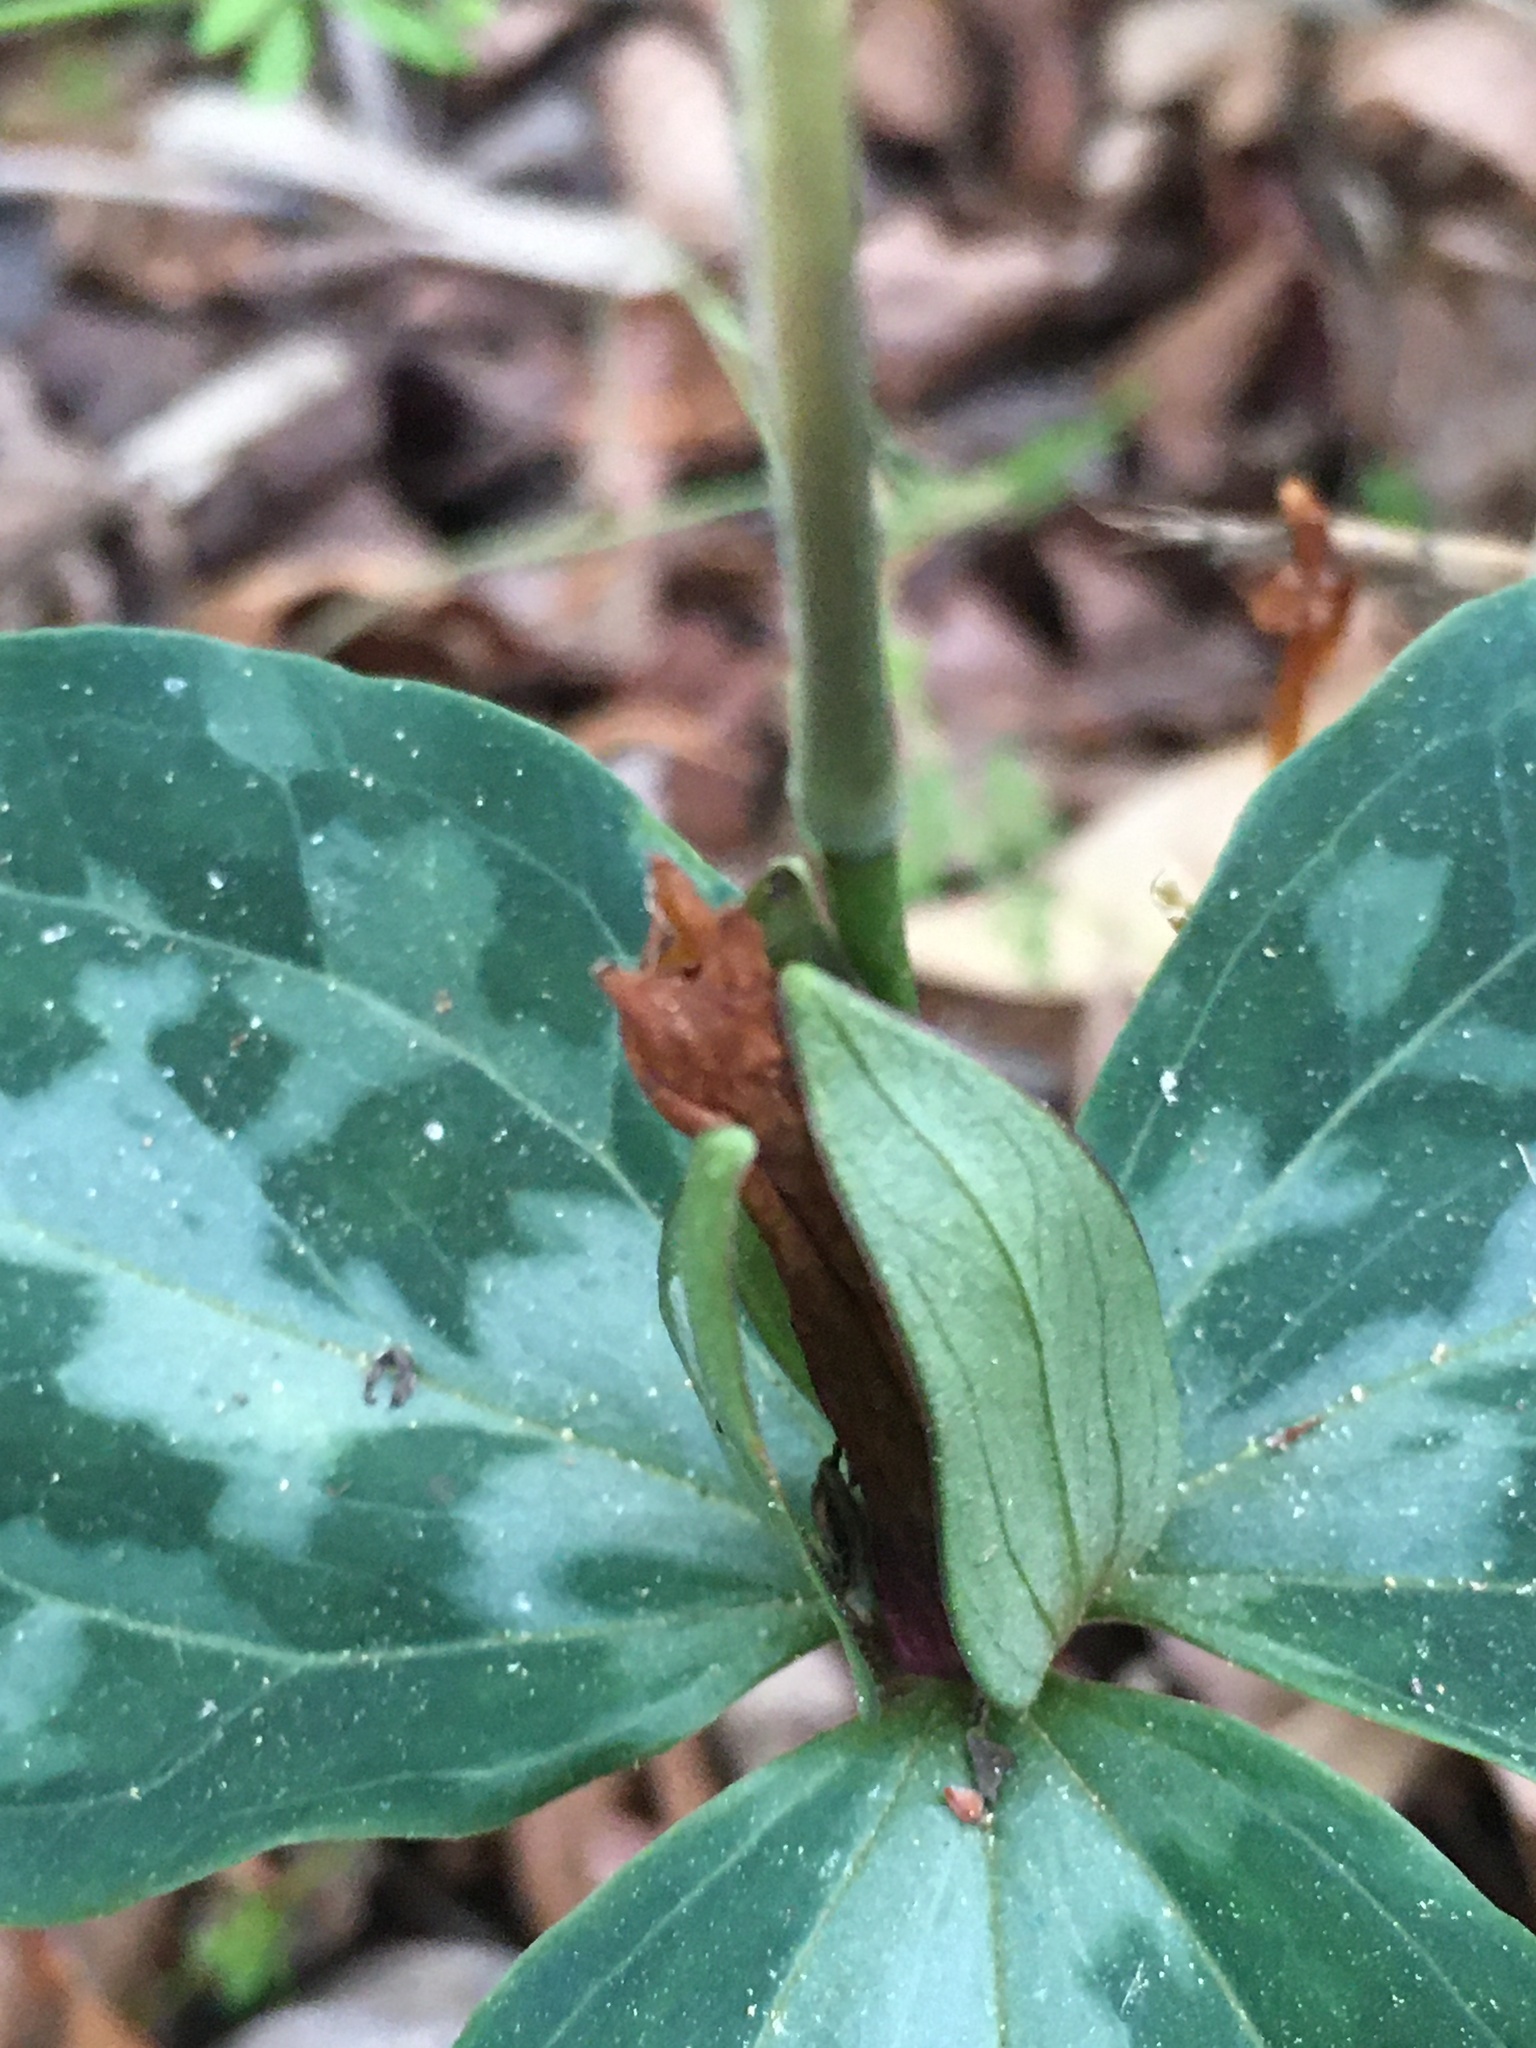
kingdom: Plantae
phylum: Tracheophyta
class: Liliopsida
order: Liliales
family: Melanthiaceae
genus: Trillium
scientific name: Trillium underwoodii
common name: Longbract wakerobin
